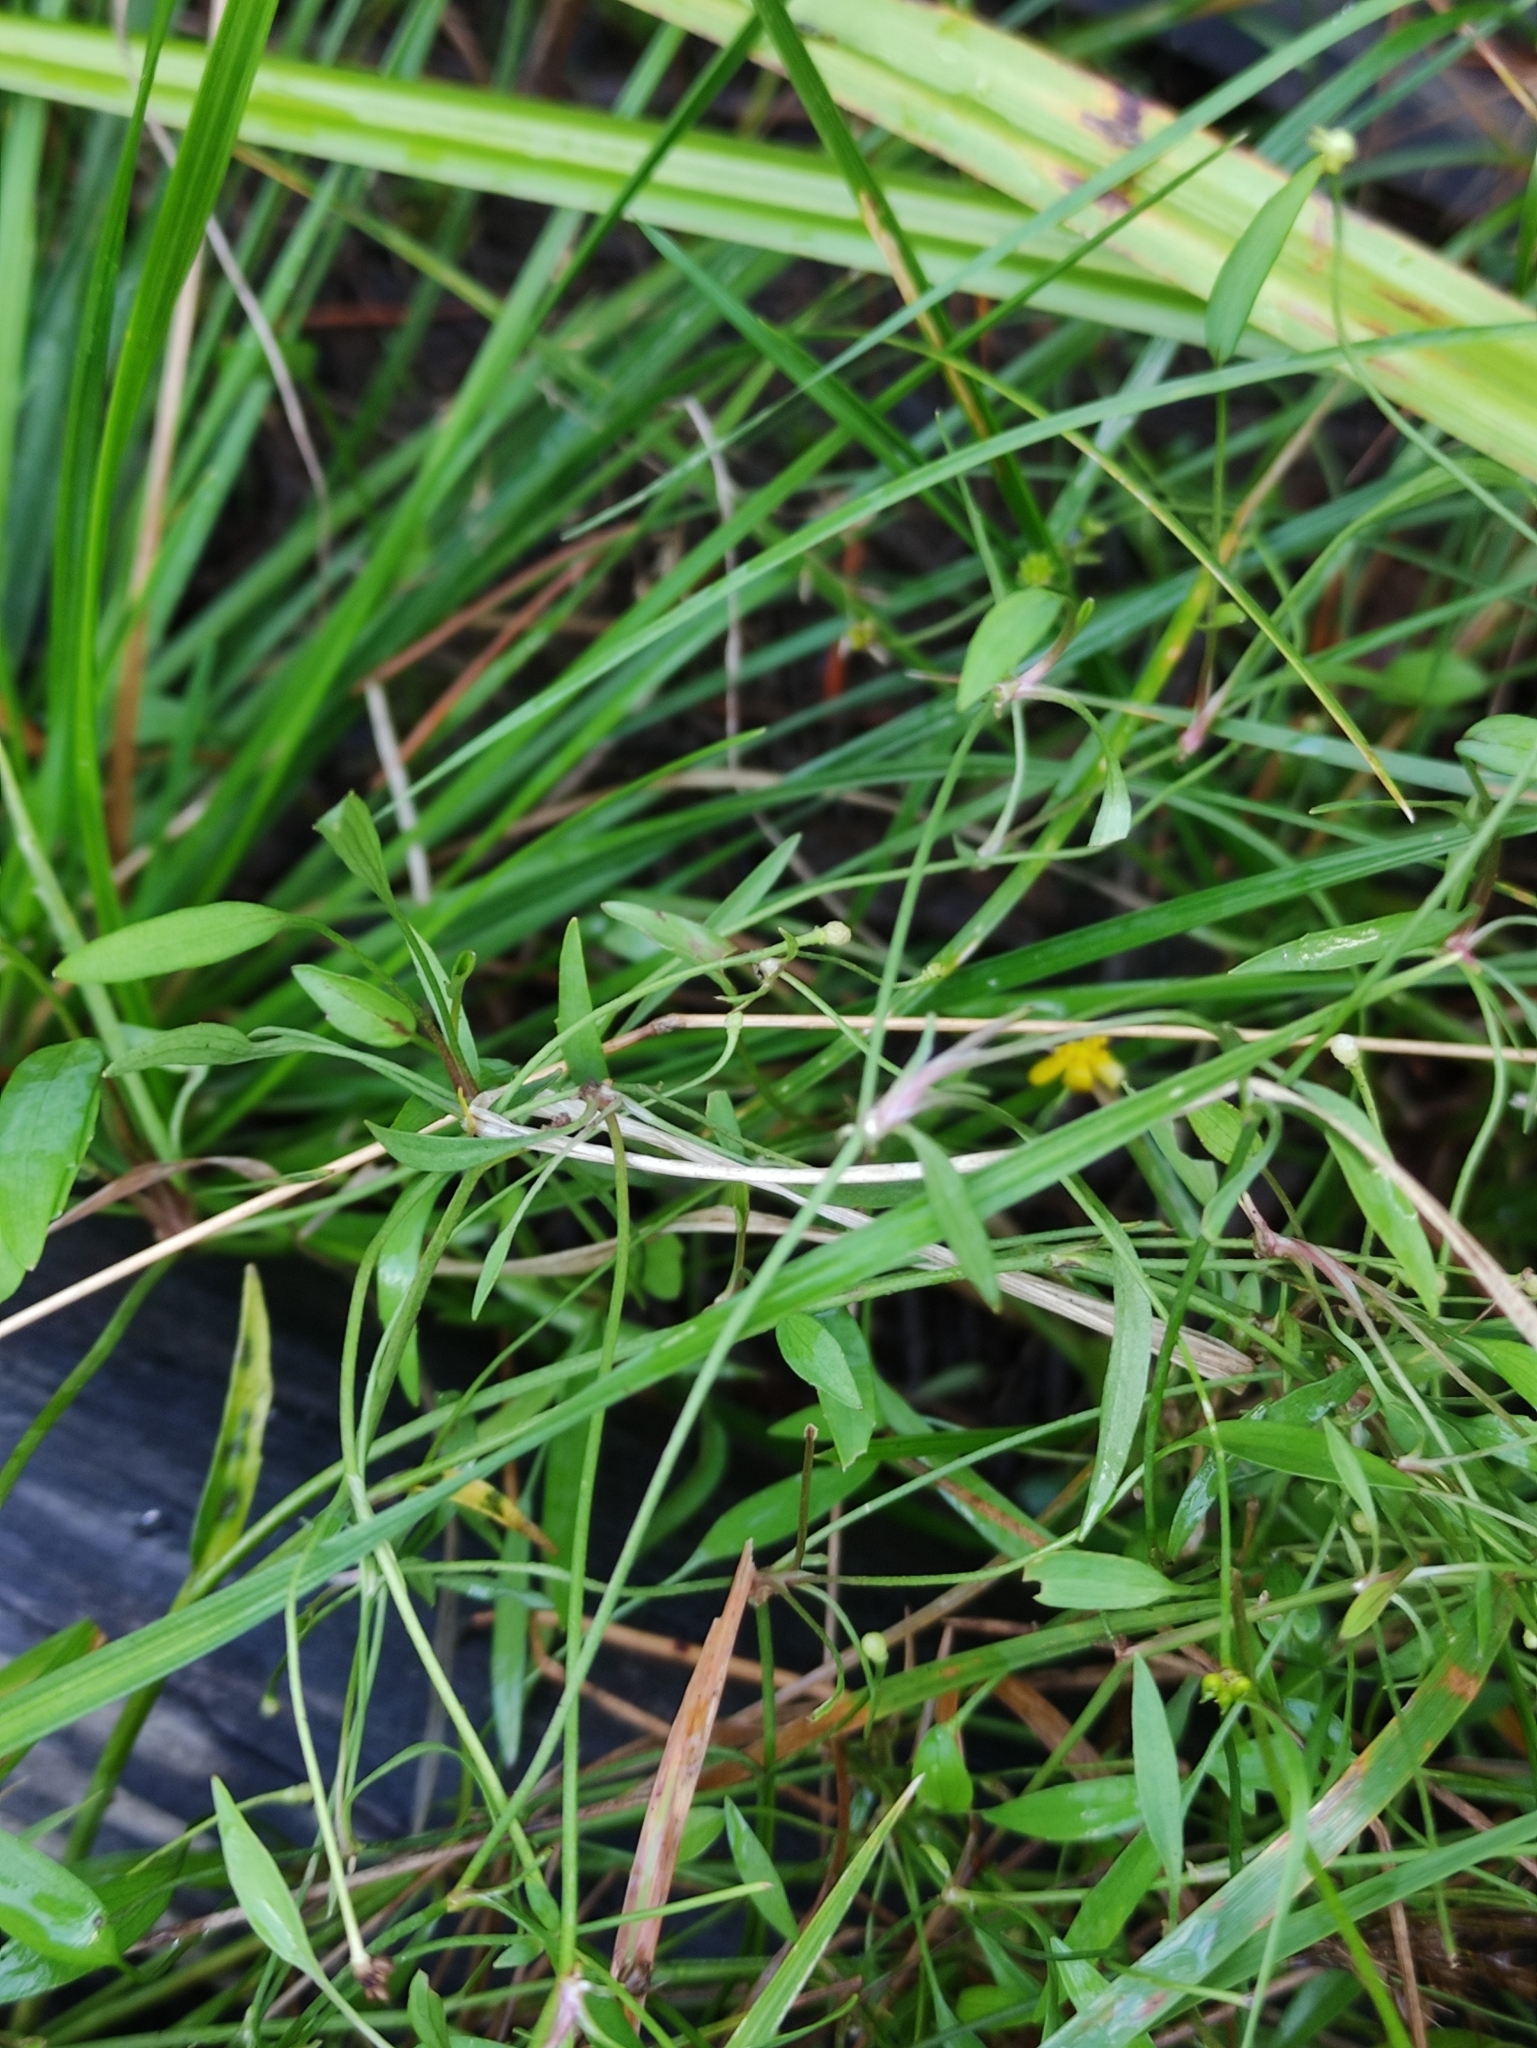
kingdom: Plantae
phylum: Tracheophyta
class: Magnoliopsida
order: Ranunculales
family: Ranunculaceae
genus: Ranunculus
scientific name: Ranunculus flammula
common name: Lesser spearwort
